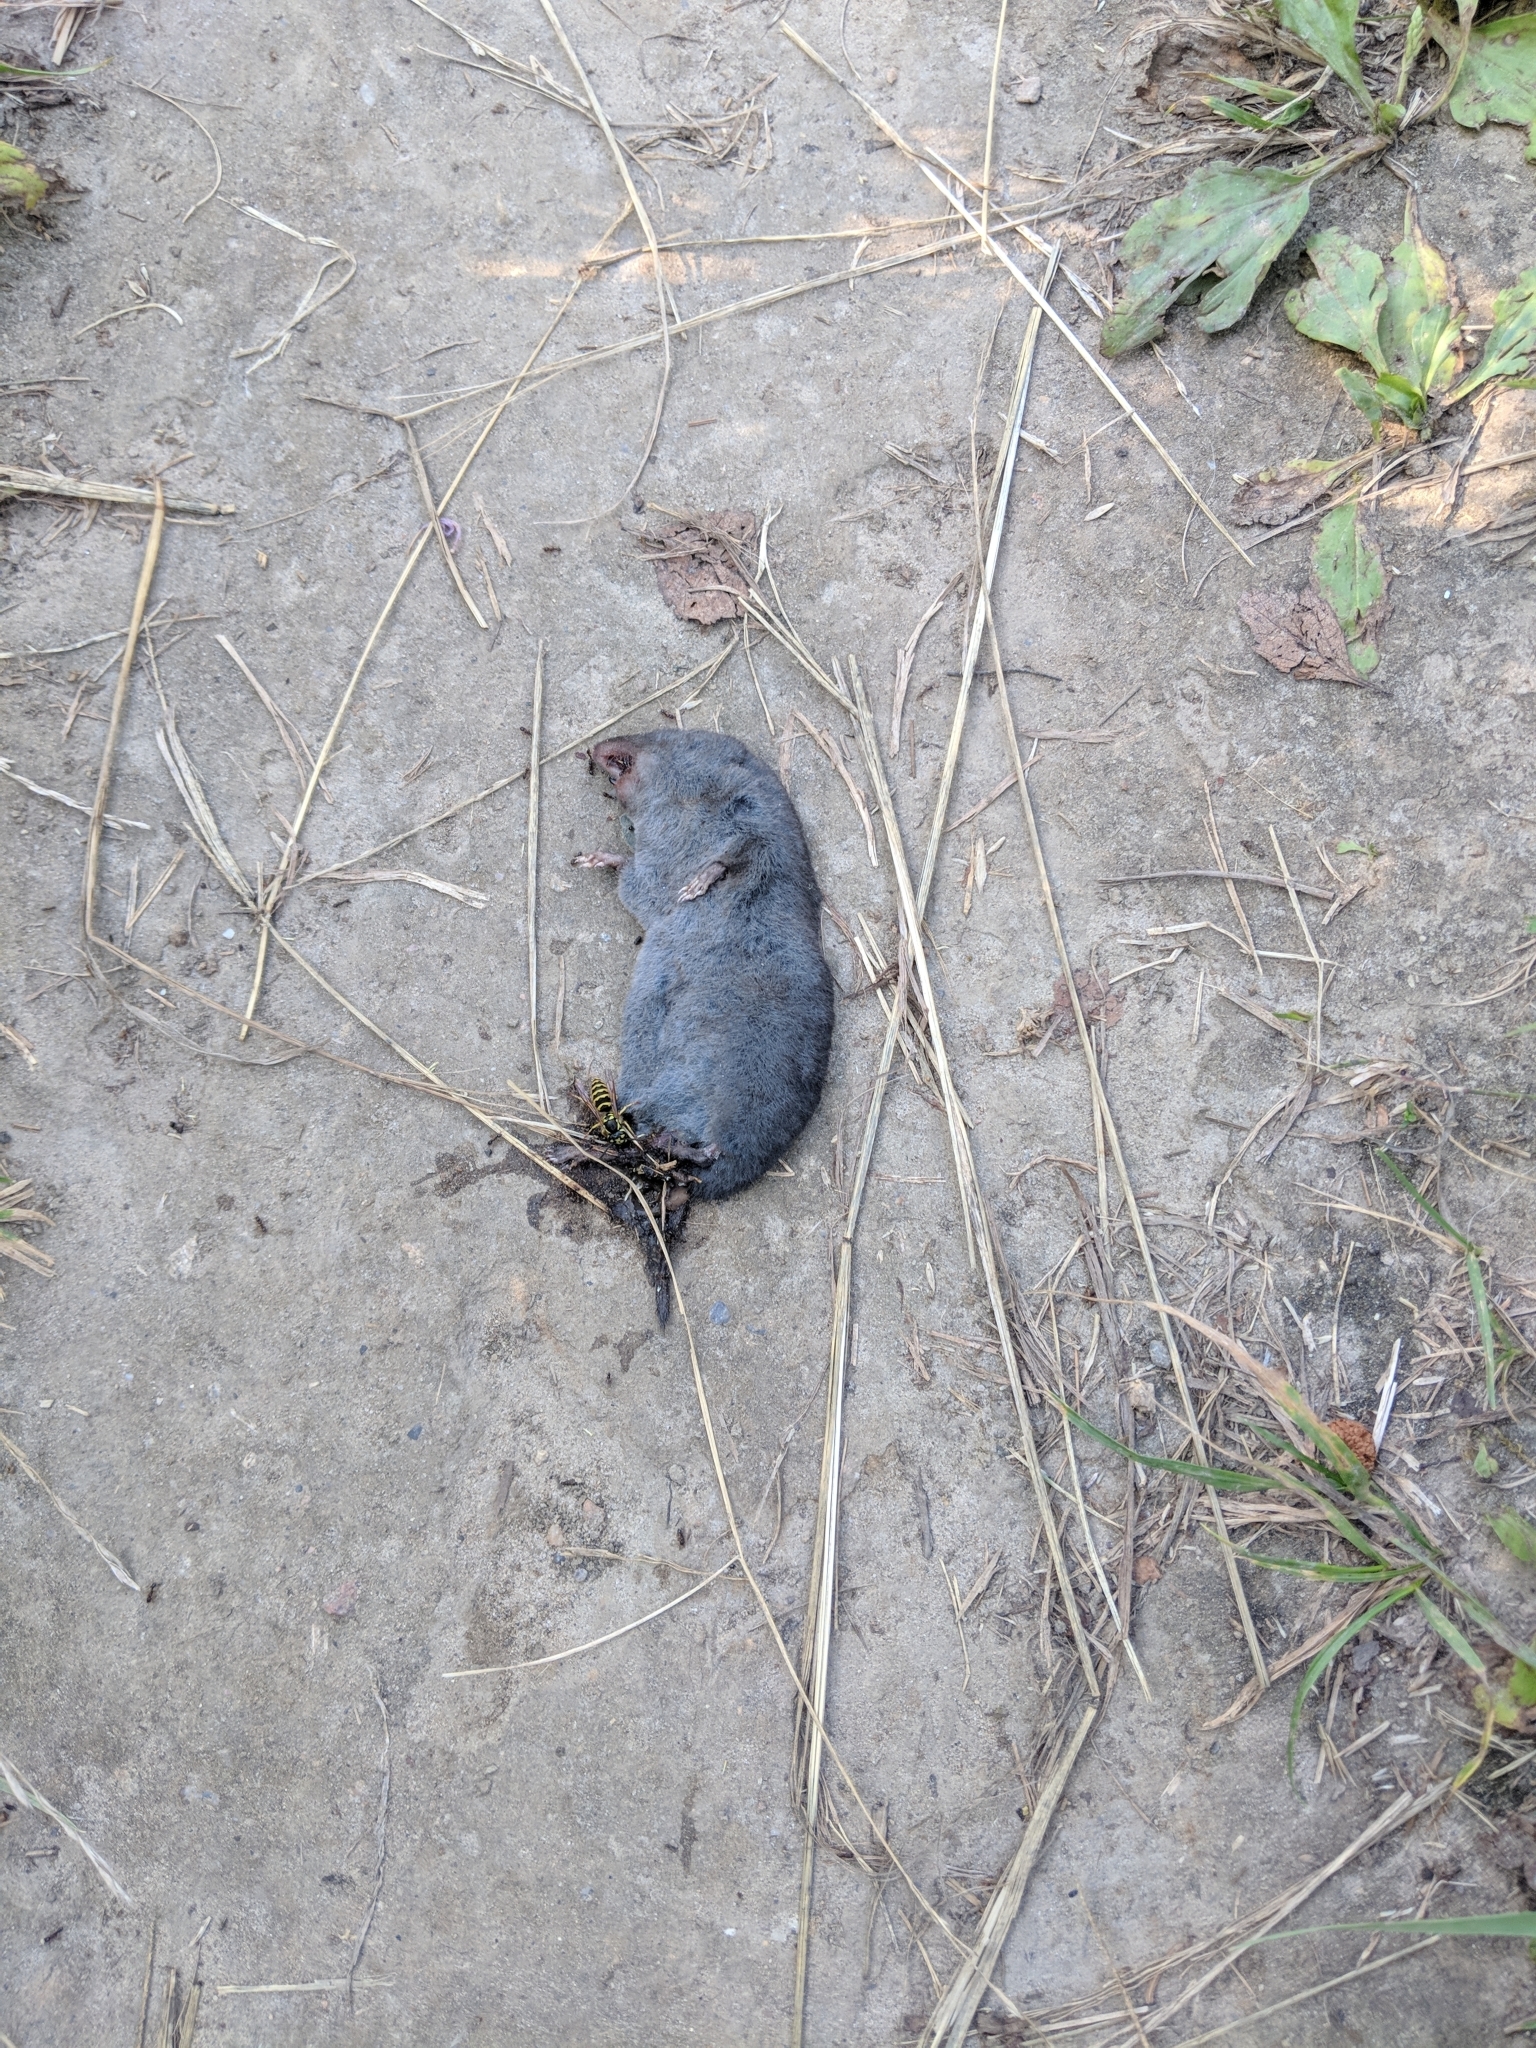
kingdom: Animalia
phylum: Chordata
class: Mammalia
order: Soricomorpha
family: Soricidae
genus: Blarina
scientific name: Blarina brevicauda
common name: Northern short-tailed shrew
